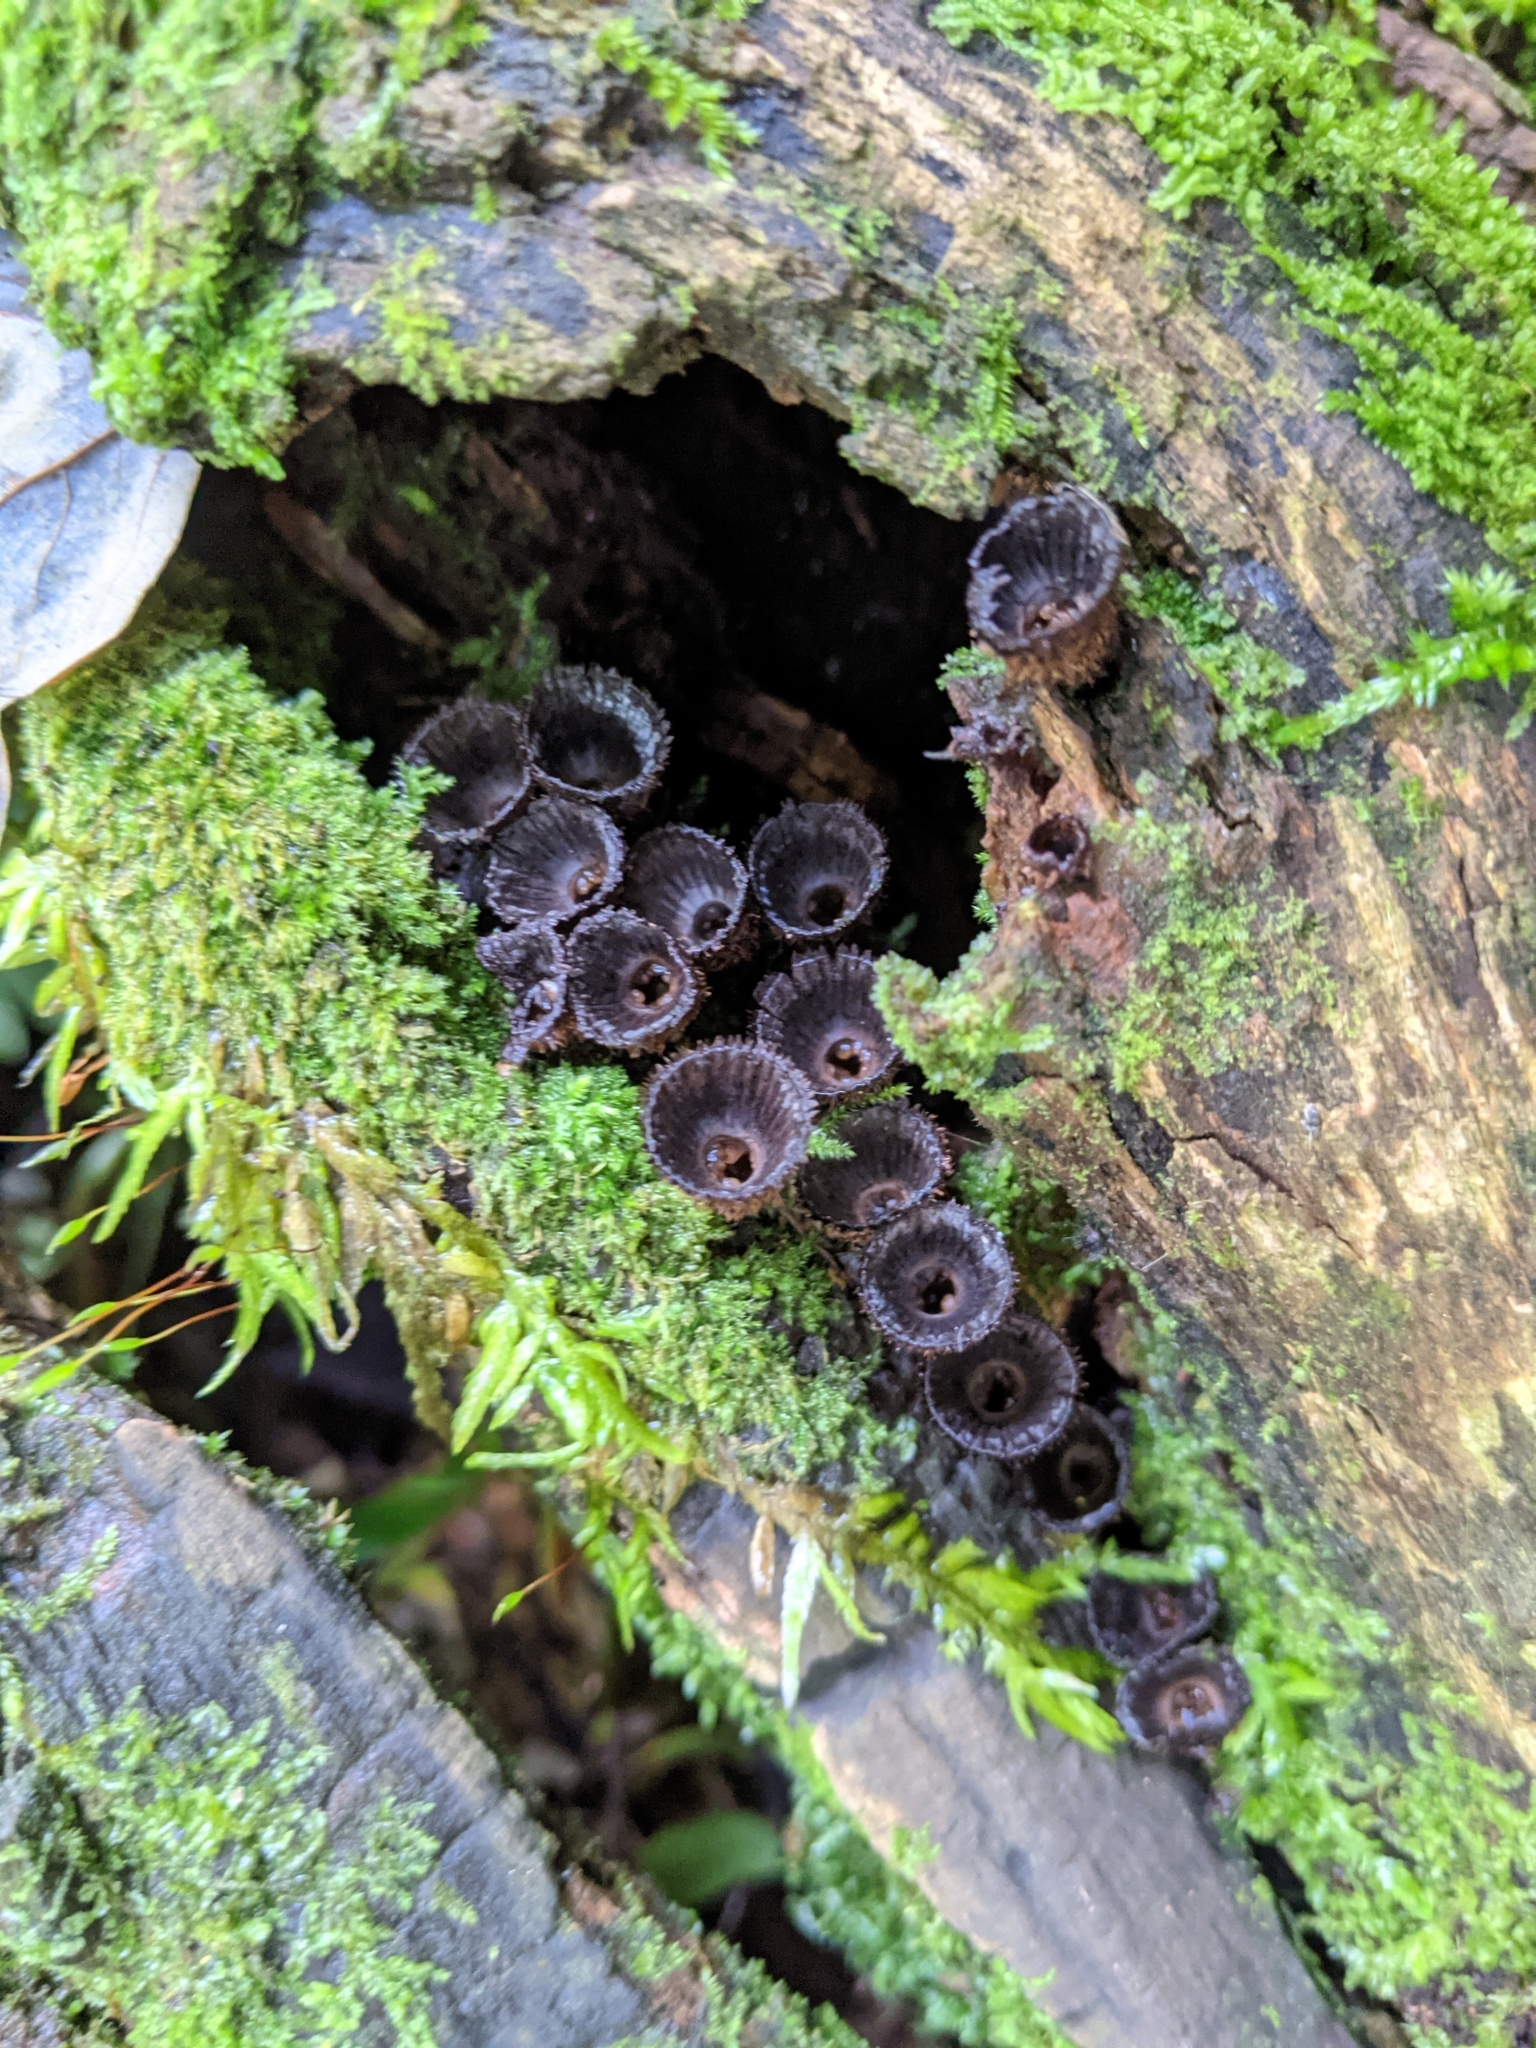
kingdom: Fungi
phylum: Basidiomycota
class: Agaricomycetes
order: Agaricales
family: Agaricaceae
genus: Cyathus
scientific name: Cyathus striatus
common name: Fluted bird's nest
